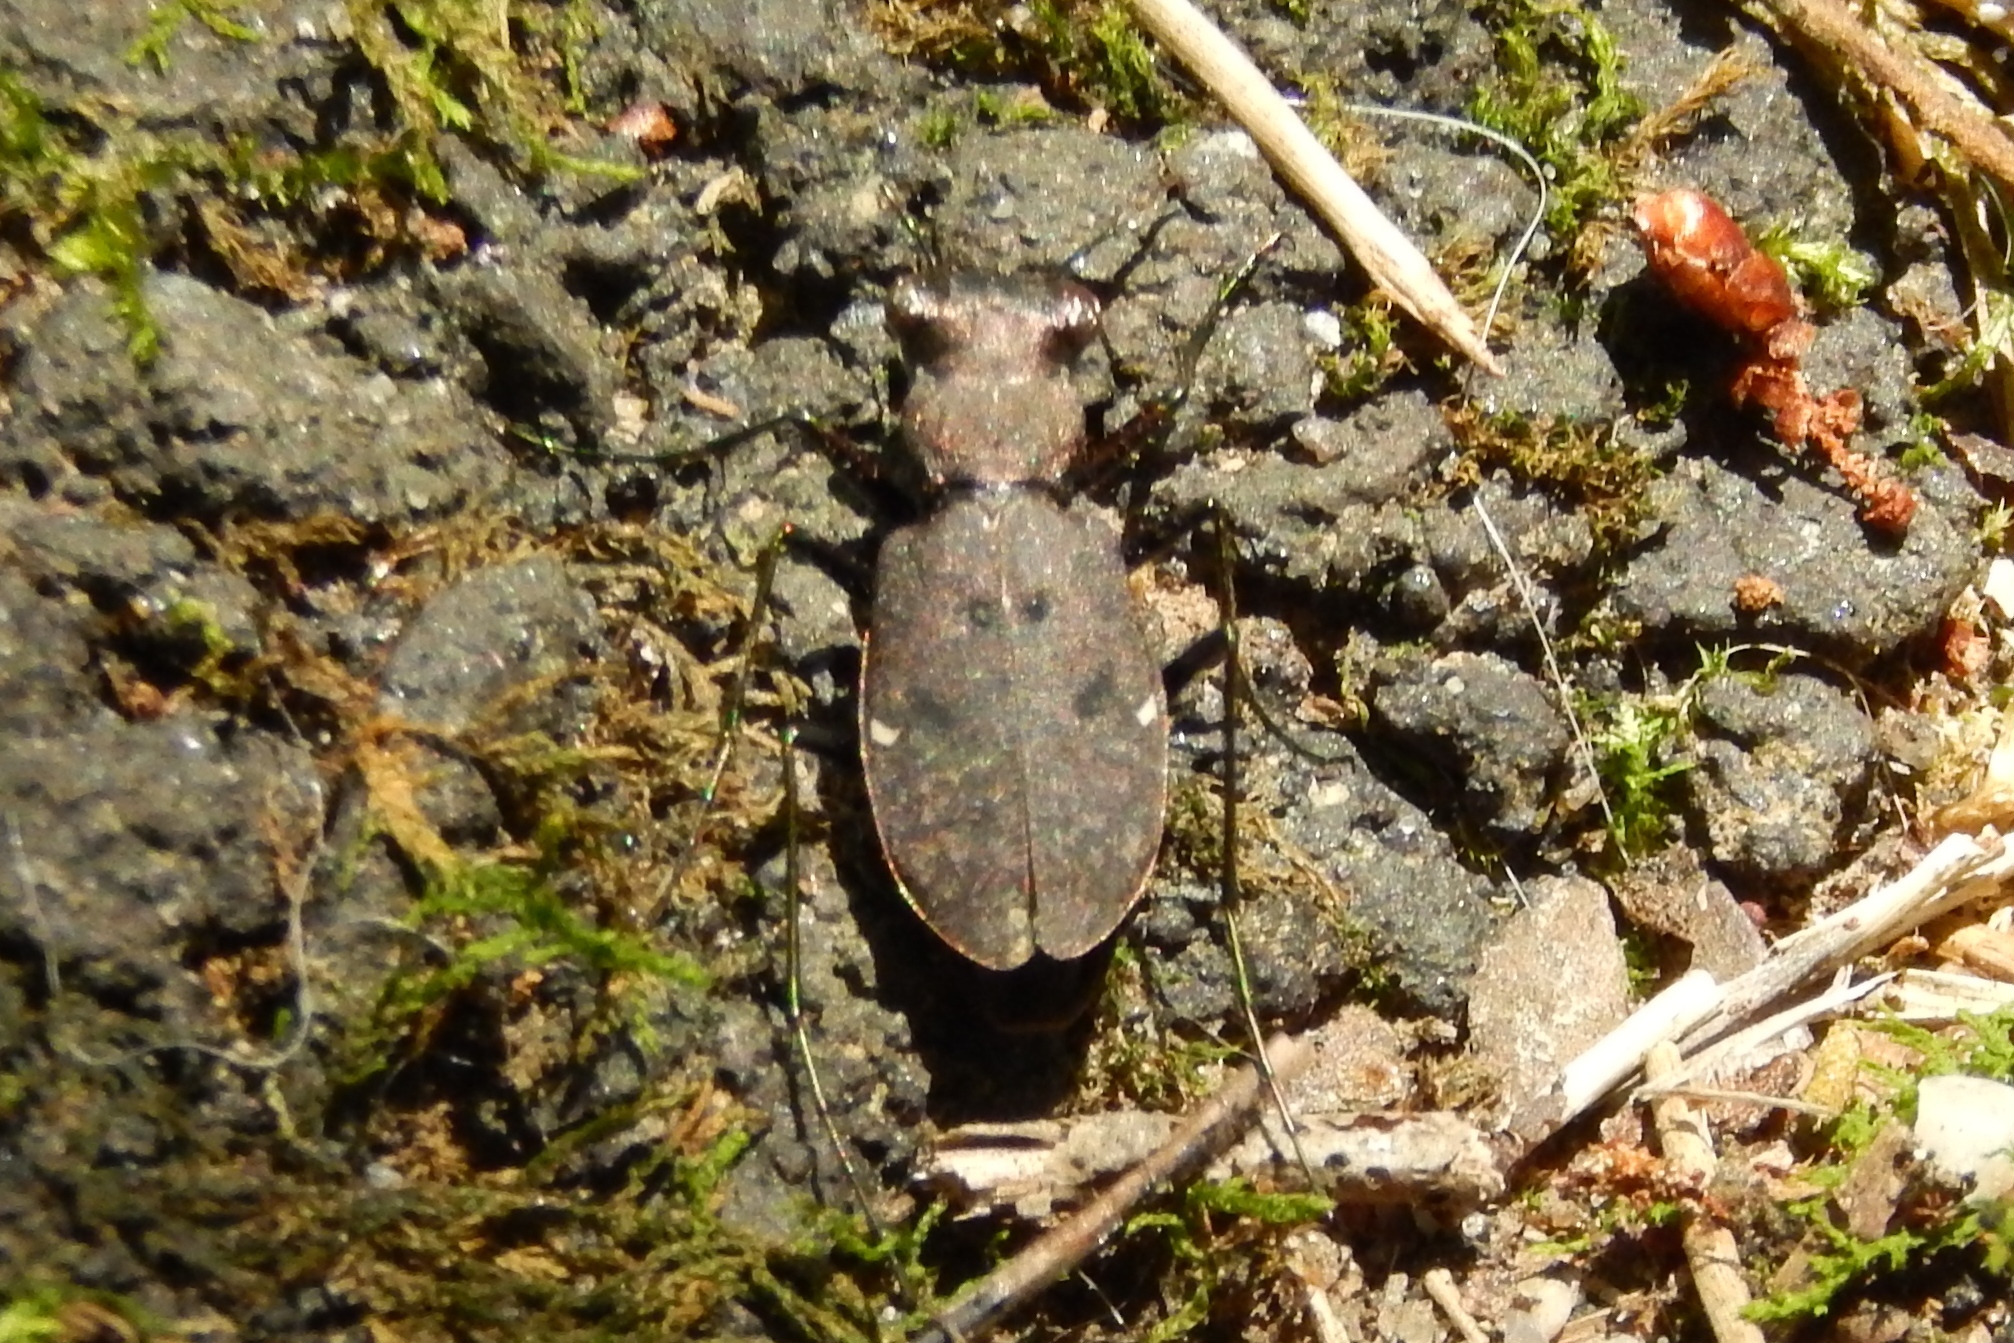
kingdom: Animalia
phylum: Arthropoda
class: Insecta
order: Coleoptera
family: Carabidae
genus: Cylindera
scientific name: Cylindera unipunctata
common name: One-spotted tiger beetle
